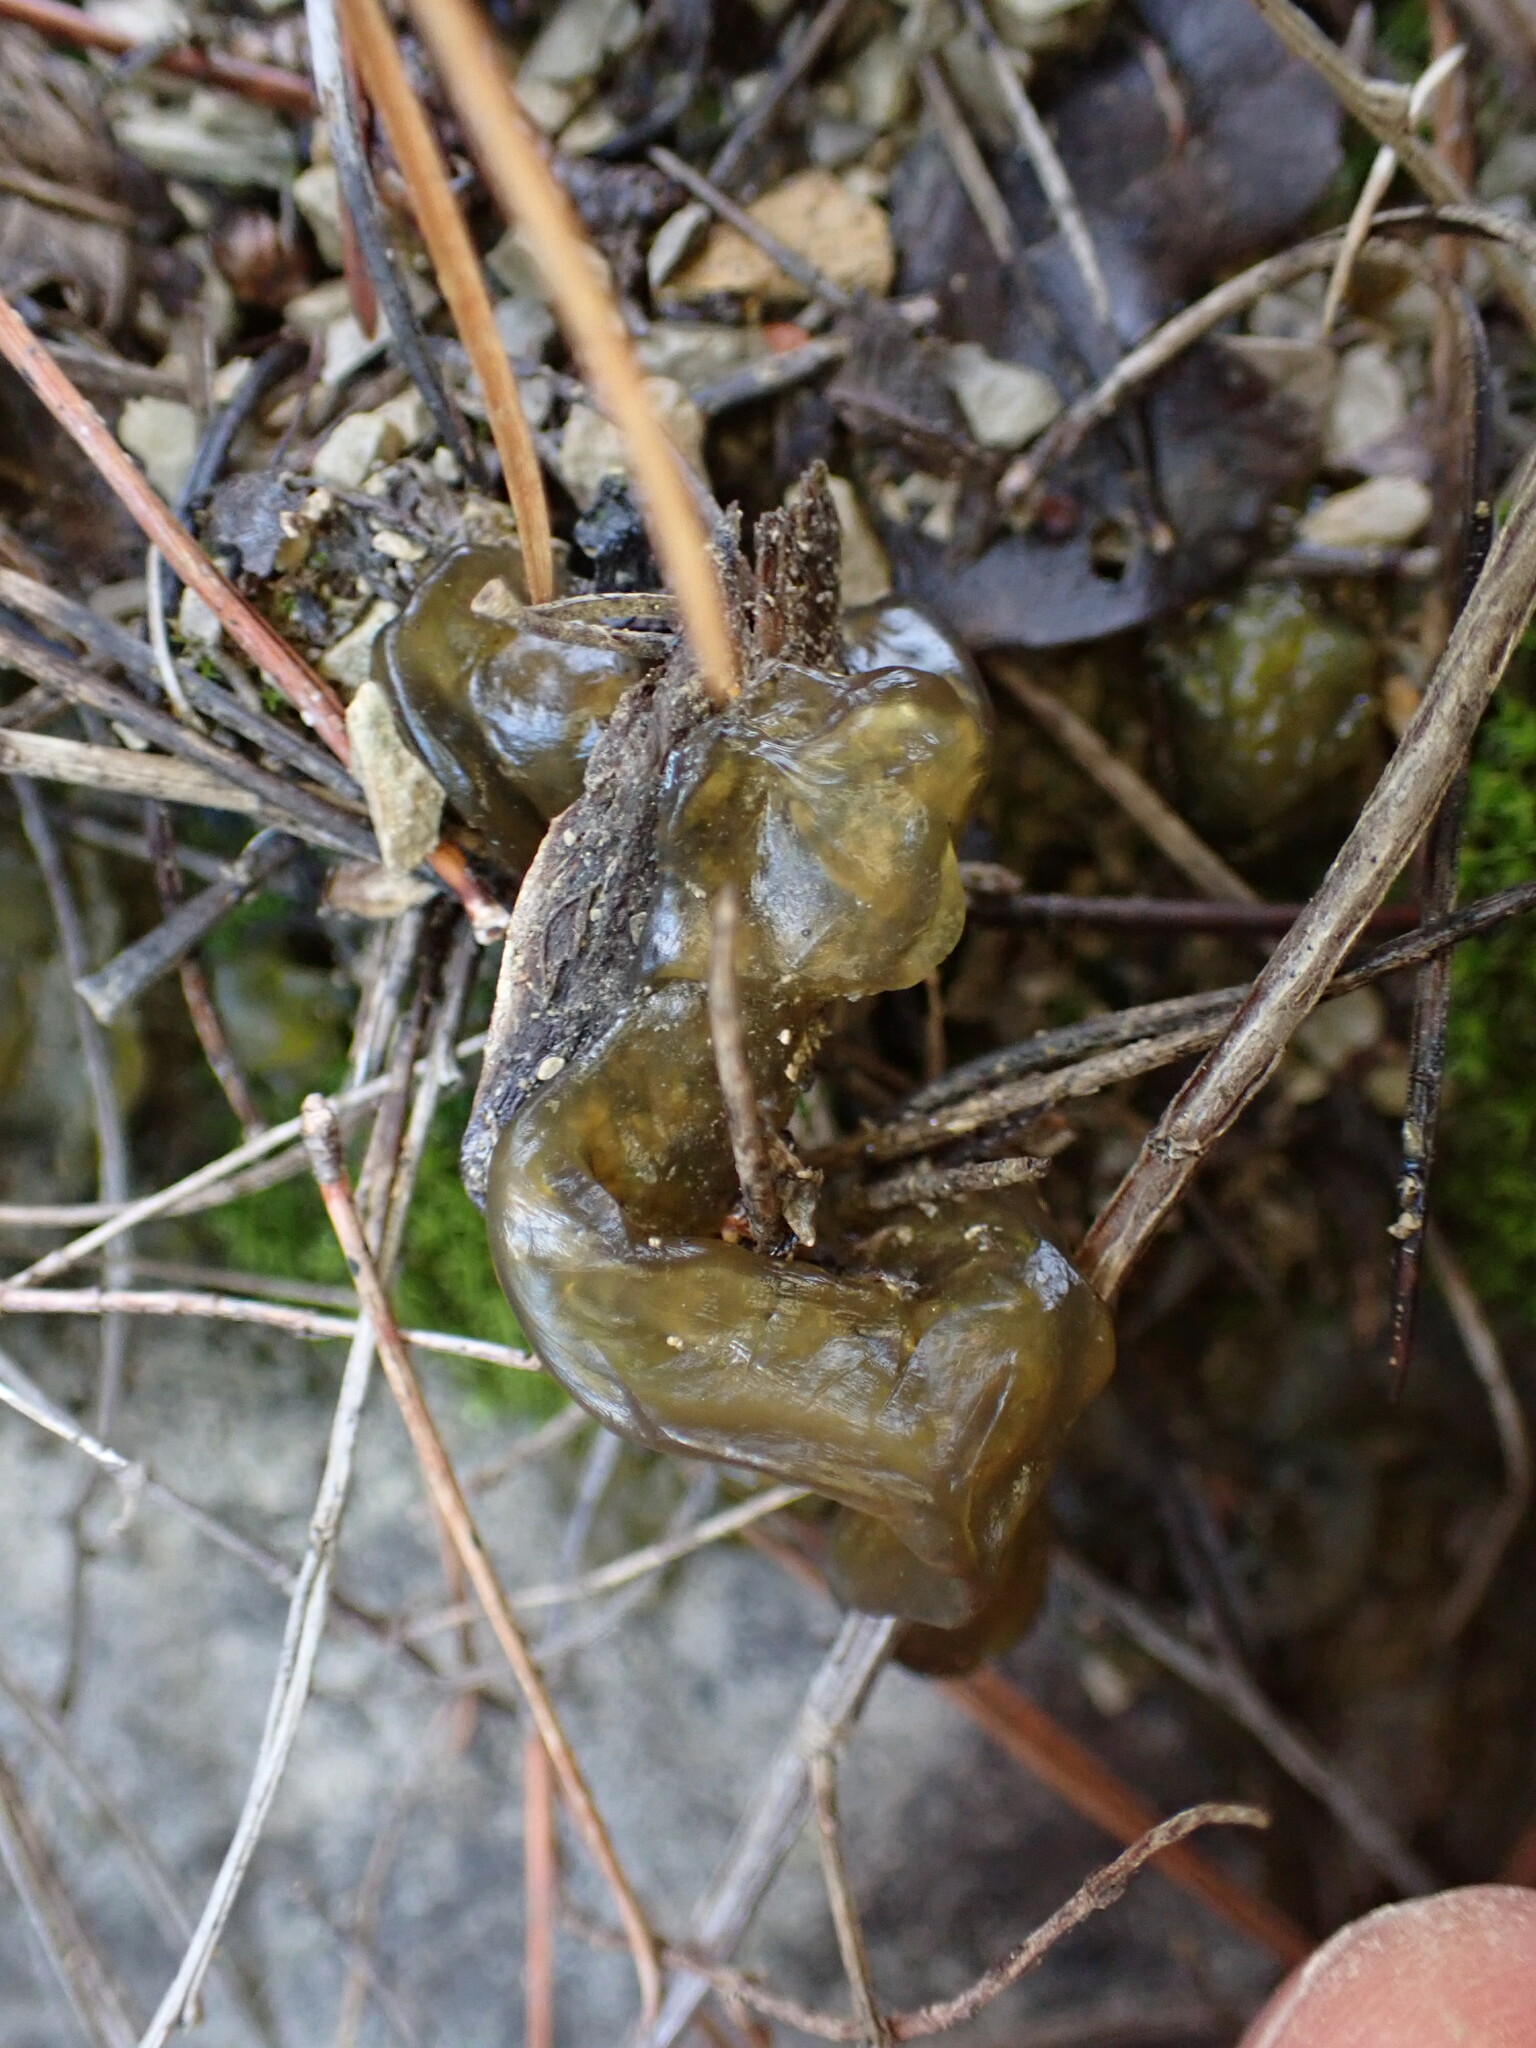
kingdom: Bacteria
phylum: Cyanobacteria
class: Cyanobacteriia
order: Cyanobacteriales
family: Nostocaceae
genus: Nostoc
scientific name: Nostoc commune
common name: Star jelly
